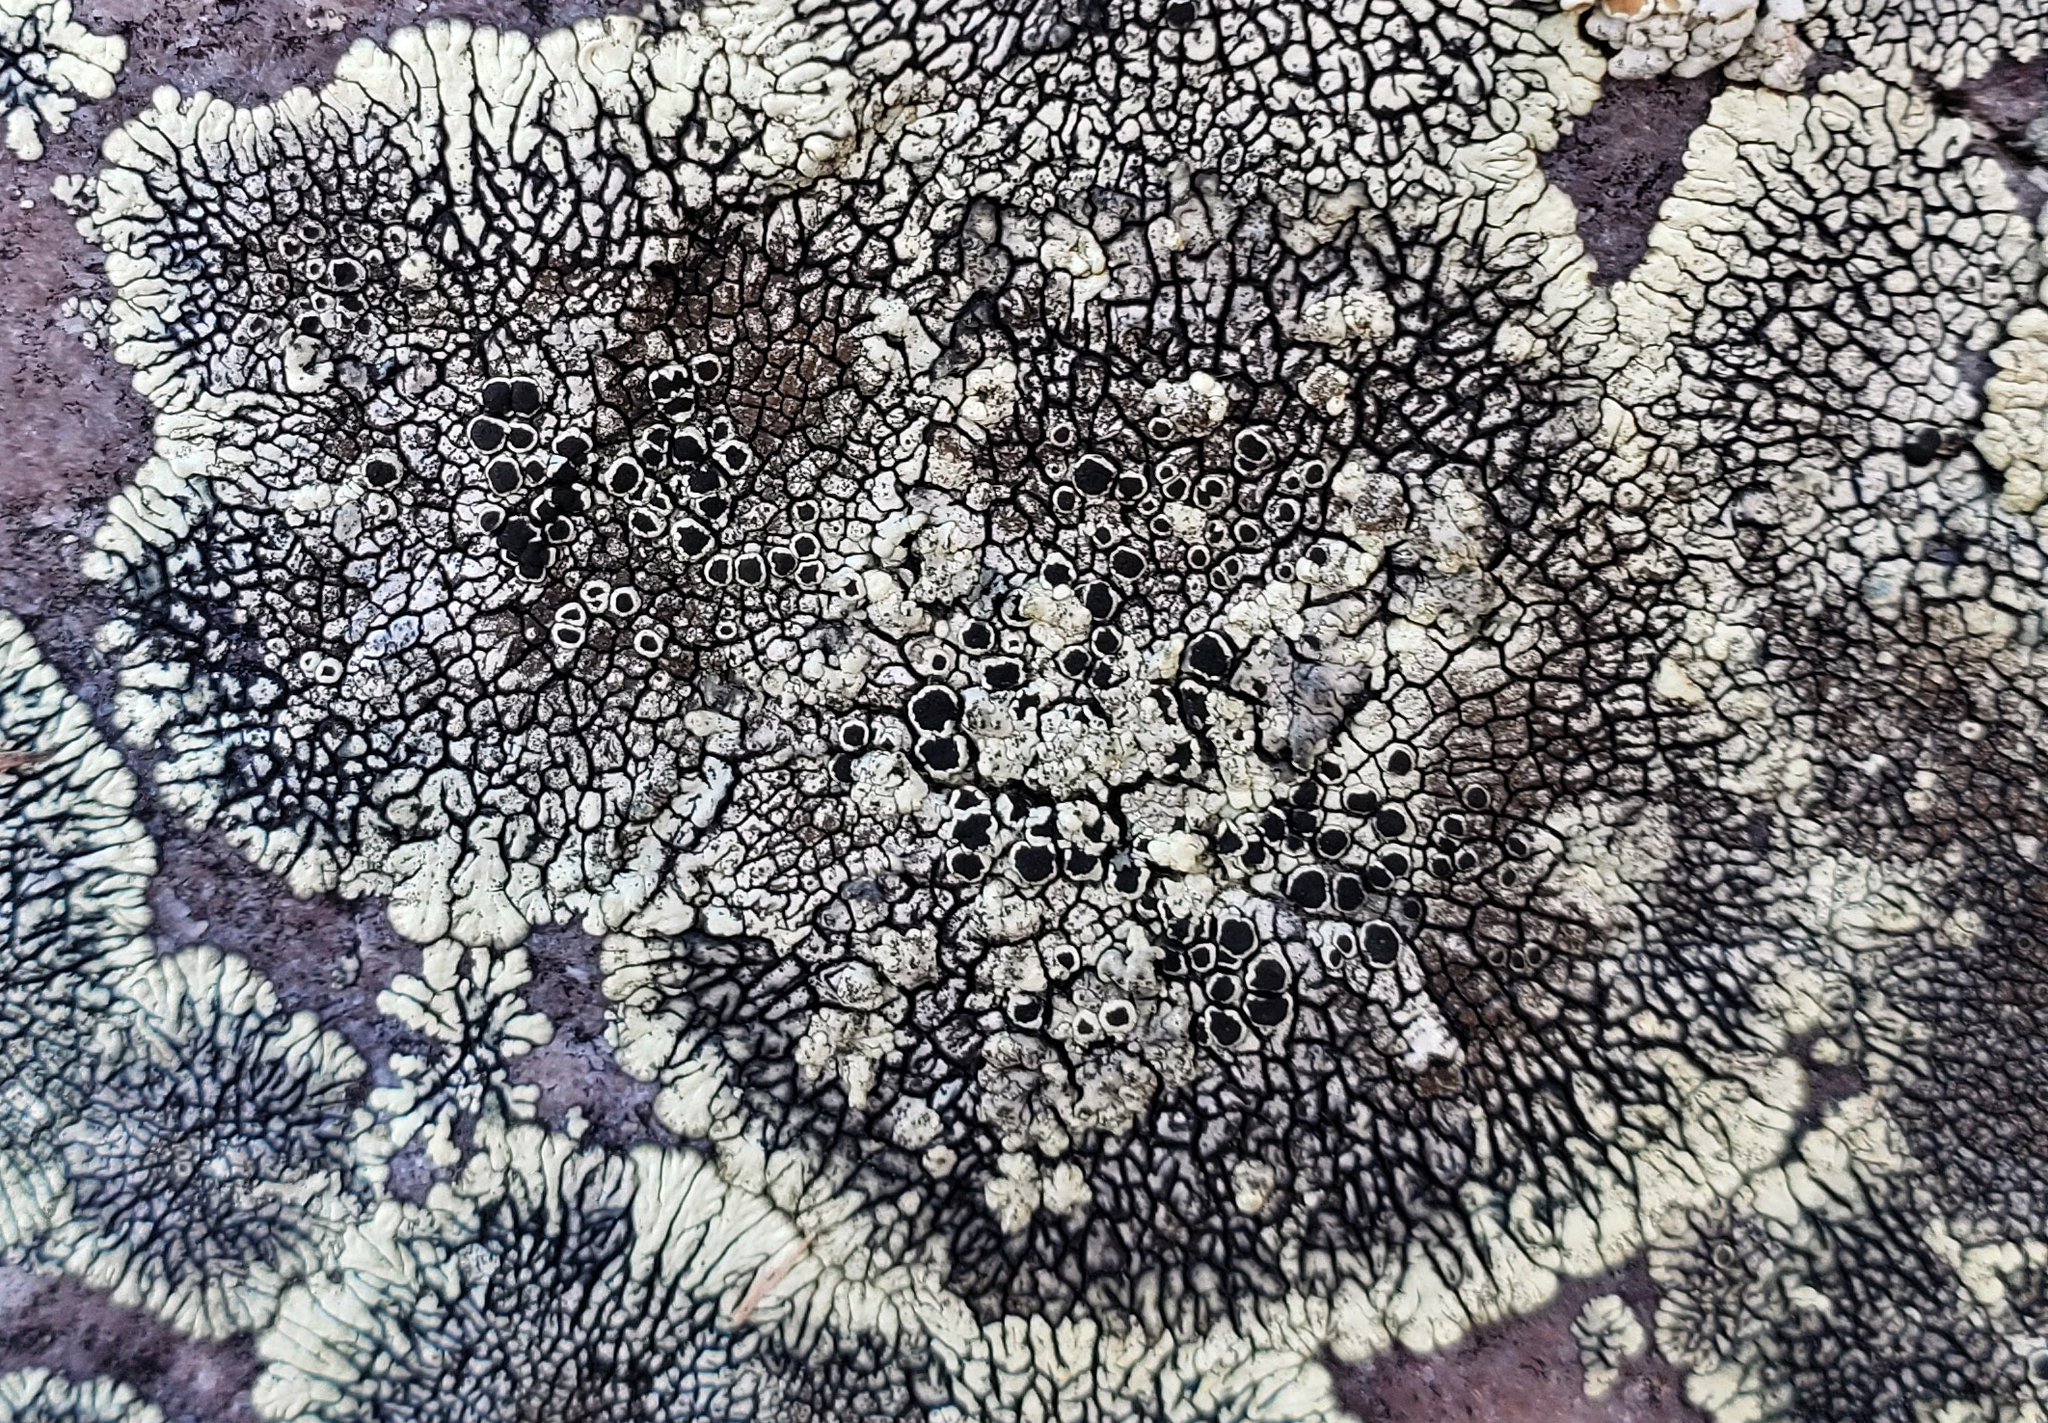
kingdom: Fungi
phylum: Ascomycota
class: Lecanoromycetes
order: Caliciales
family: Caliciaceae
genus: Dimelaena
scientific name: Dimelaena oreina
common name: Golden moonglow lichen
